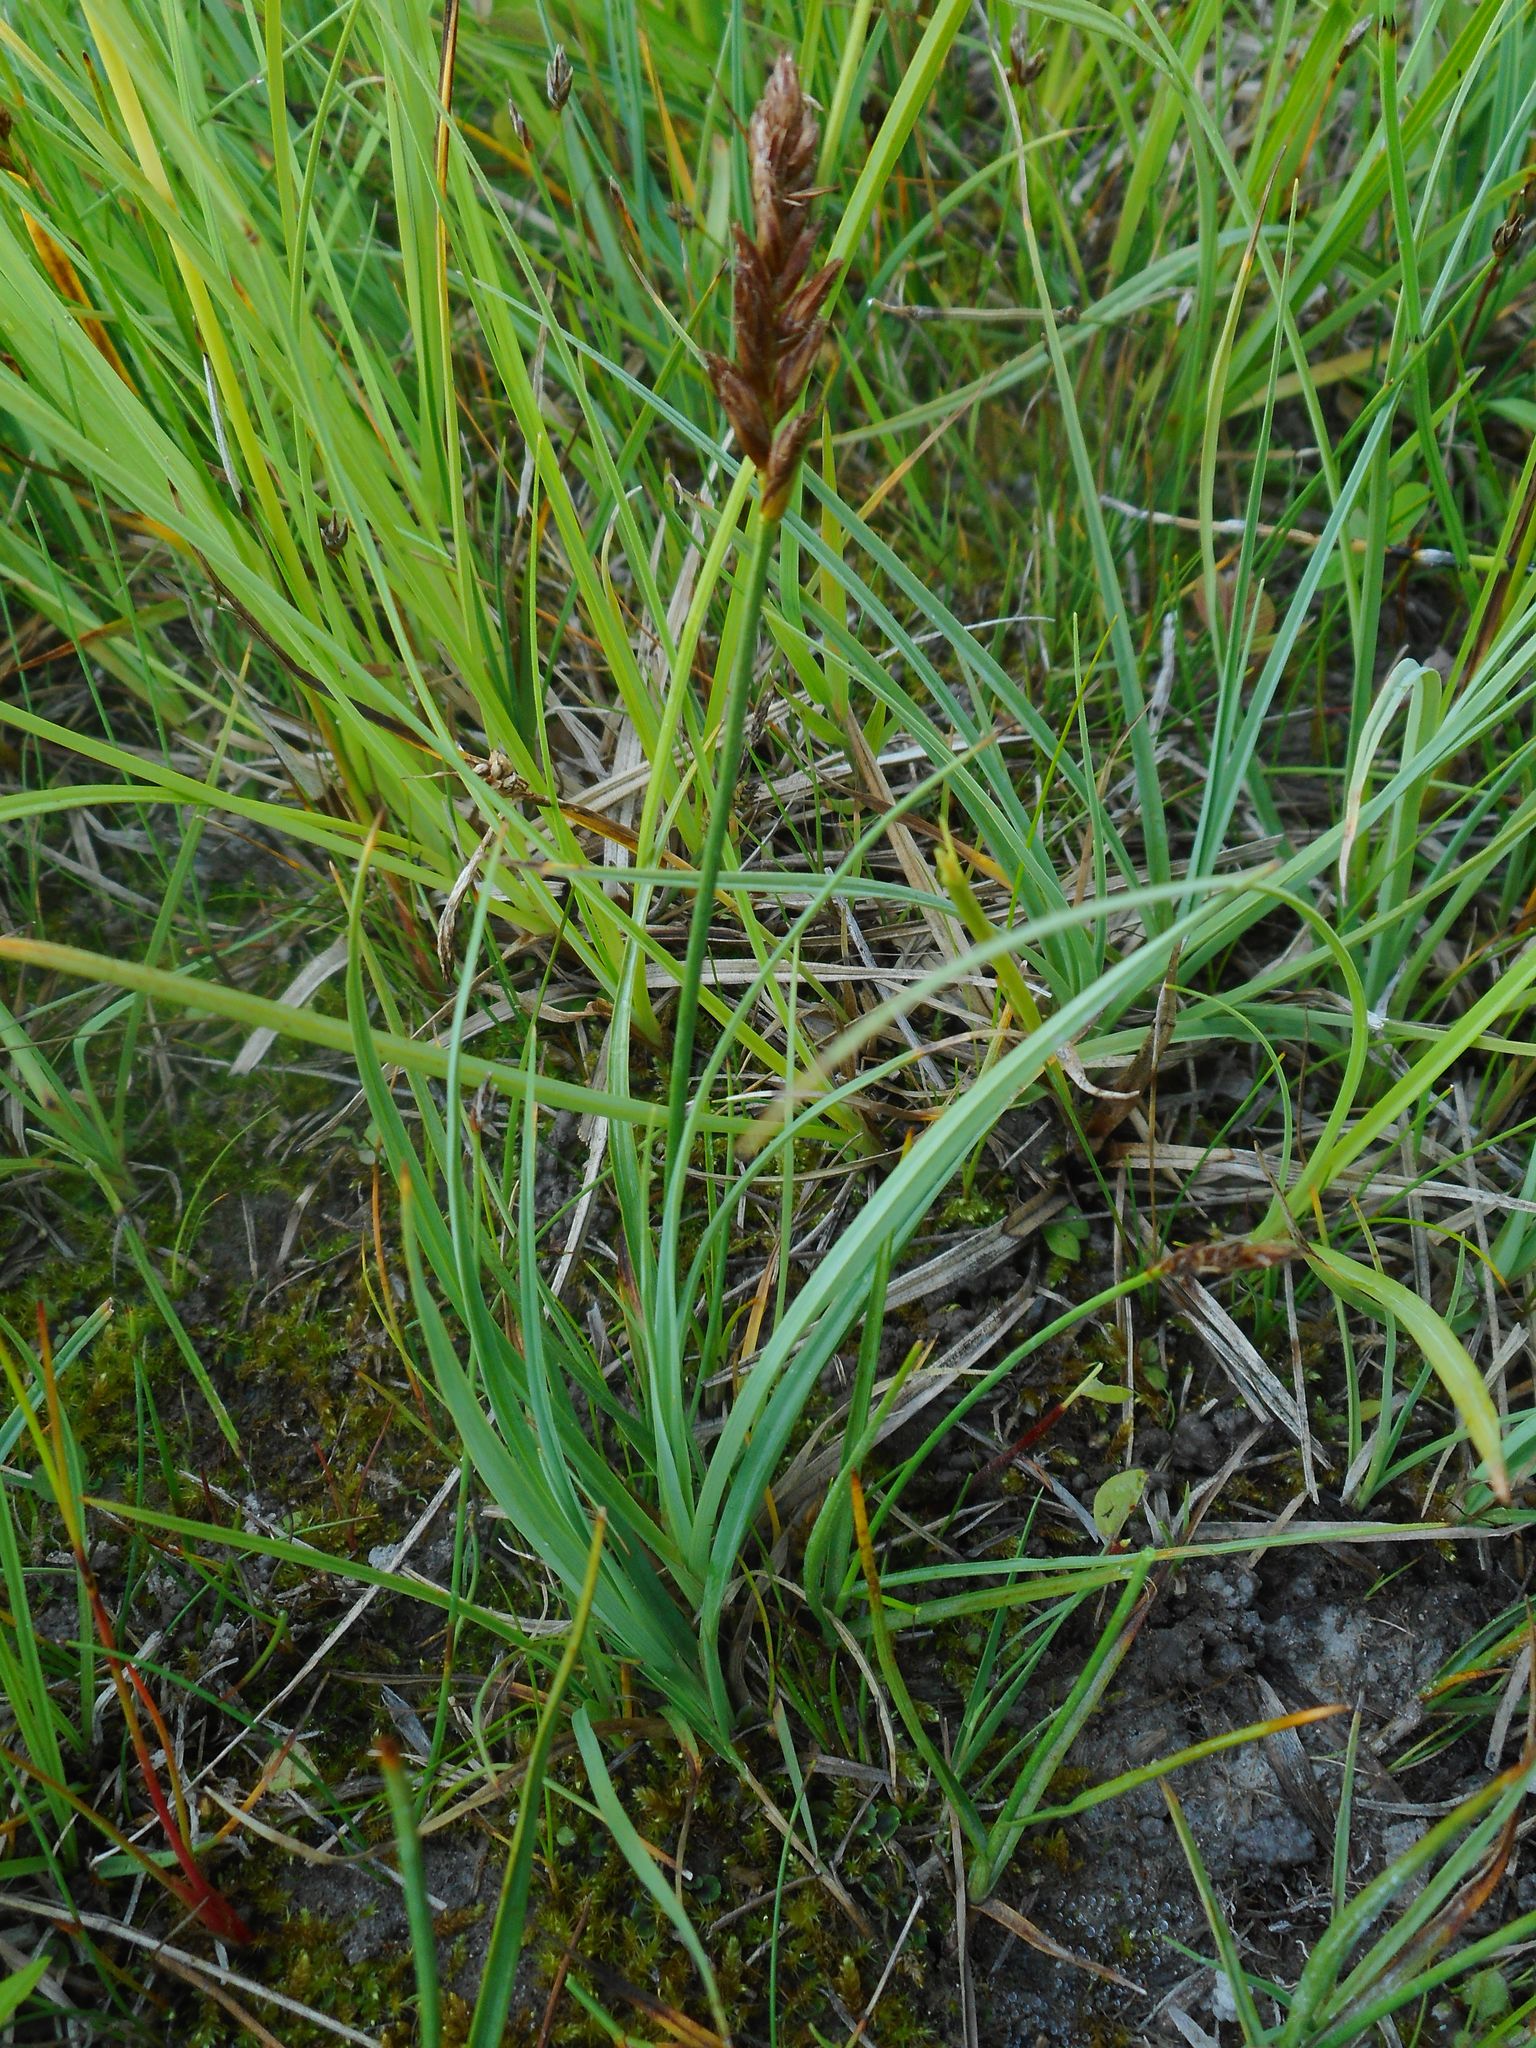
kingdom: Plantae
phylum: Tracheophyta
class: Liliopsida
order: Poales
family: Cyperaceae
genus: Blysmus
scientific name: Blysmus compressus
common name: Flat-sedge
